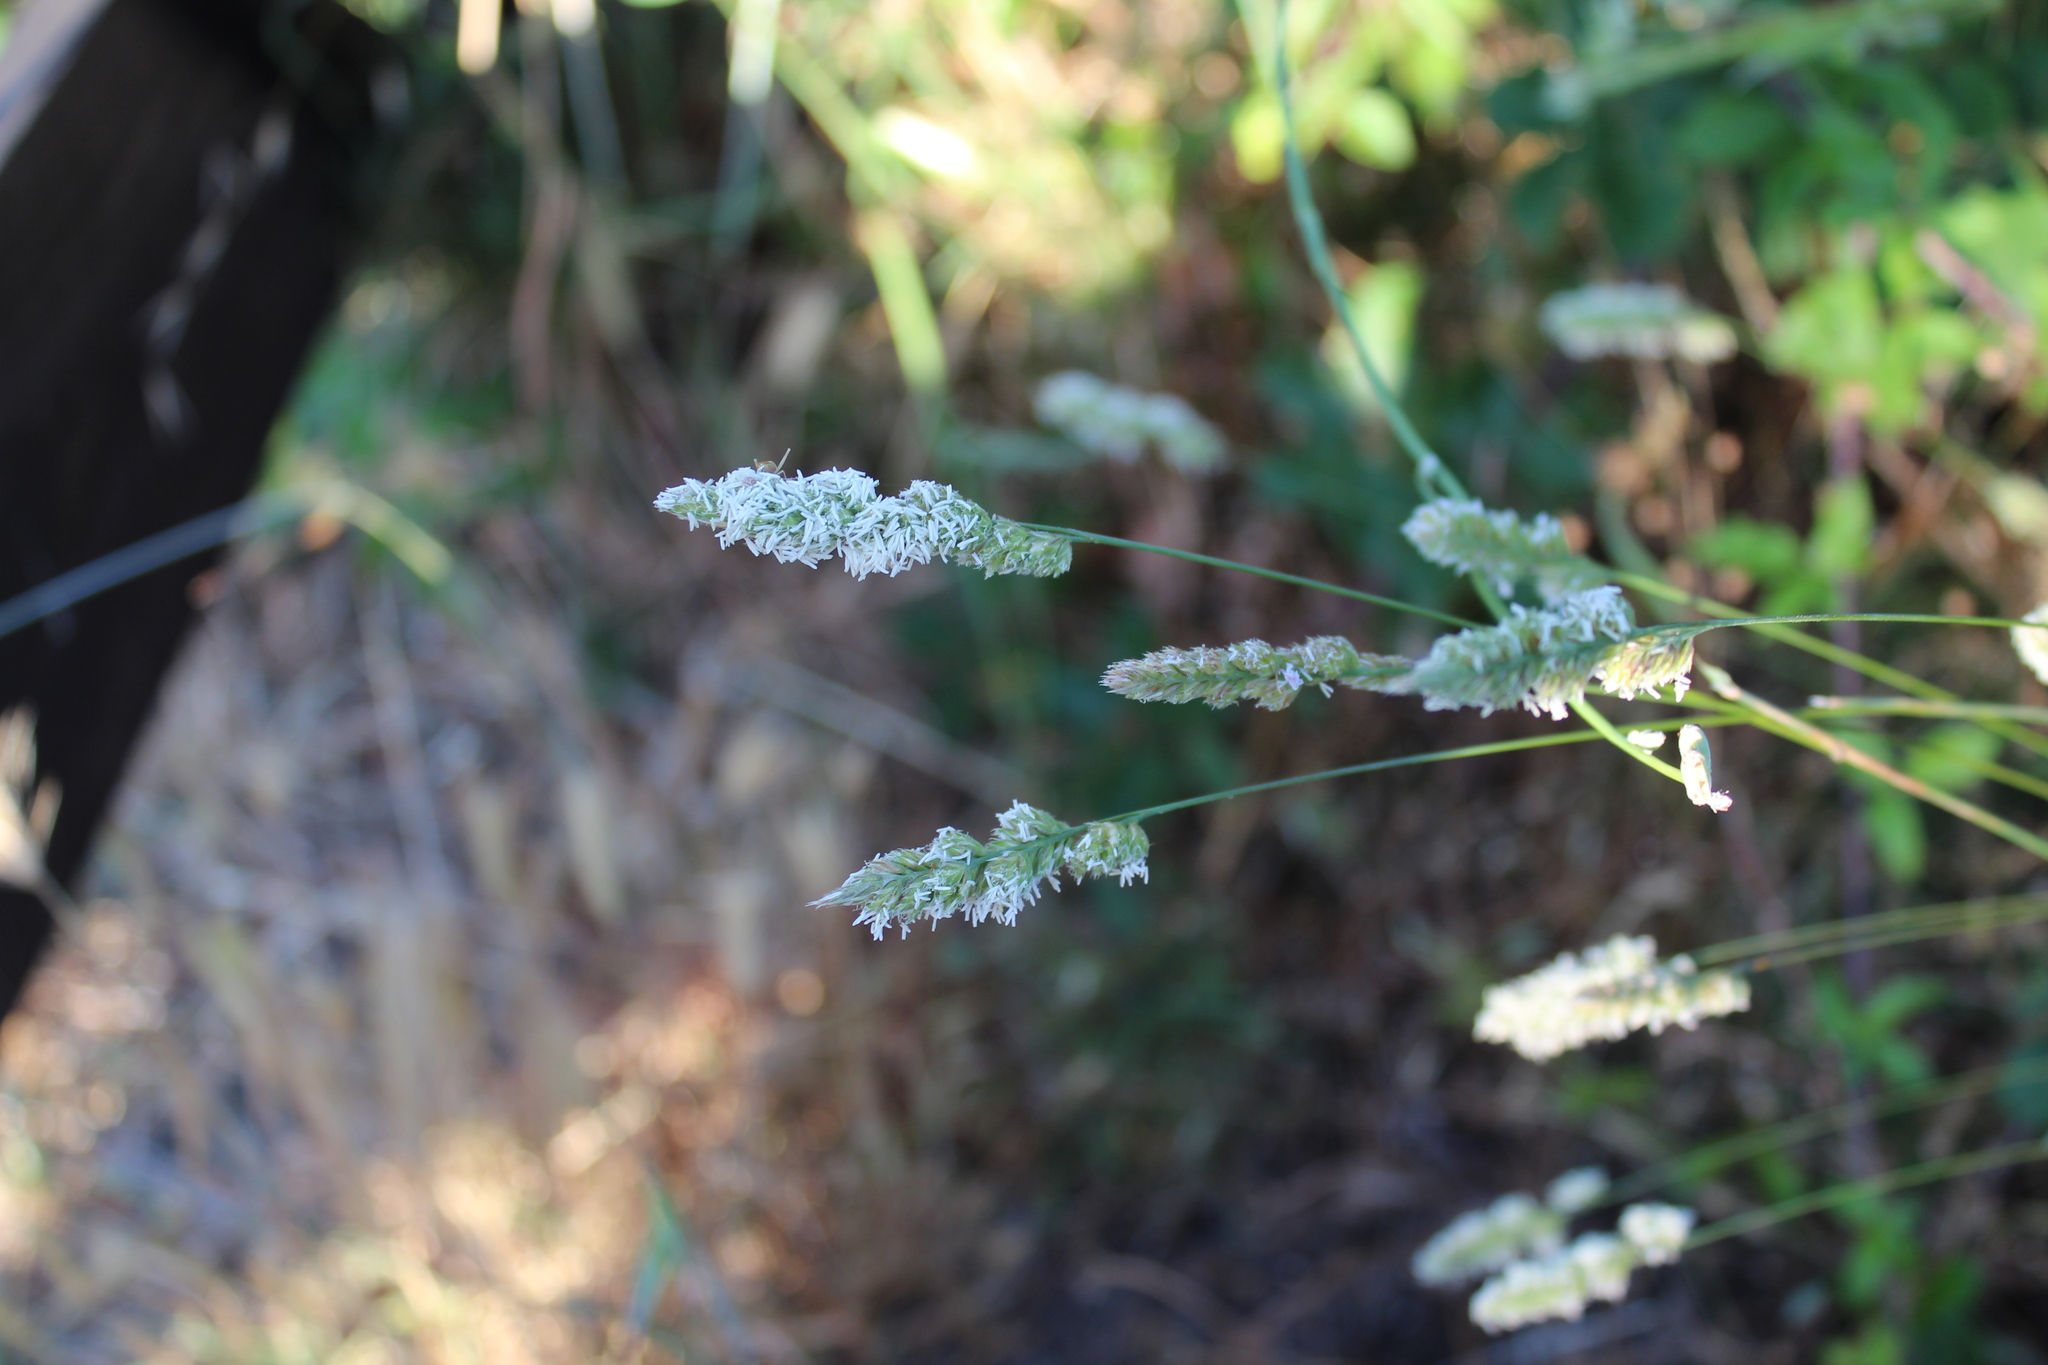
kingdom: Plantae
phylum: Tracheophyta
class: Liliopsida
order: Poales
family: Poaceae
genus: Dactylis
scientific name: Dactylis glomerata
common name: Orchardgrass
